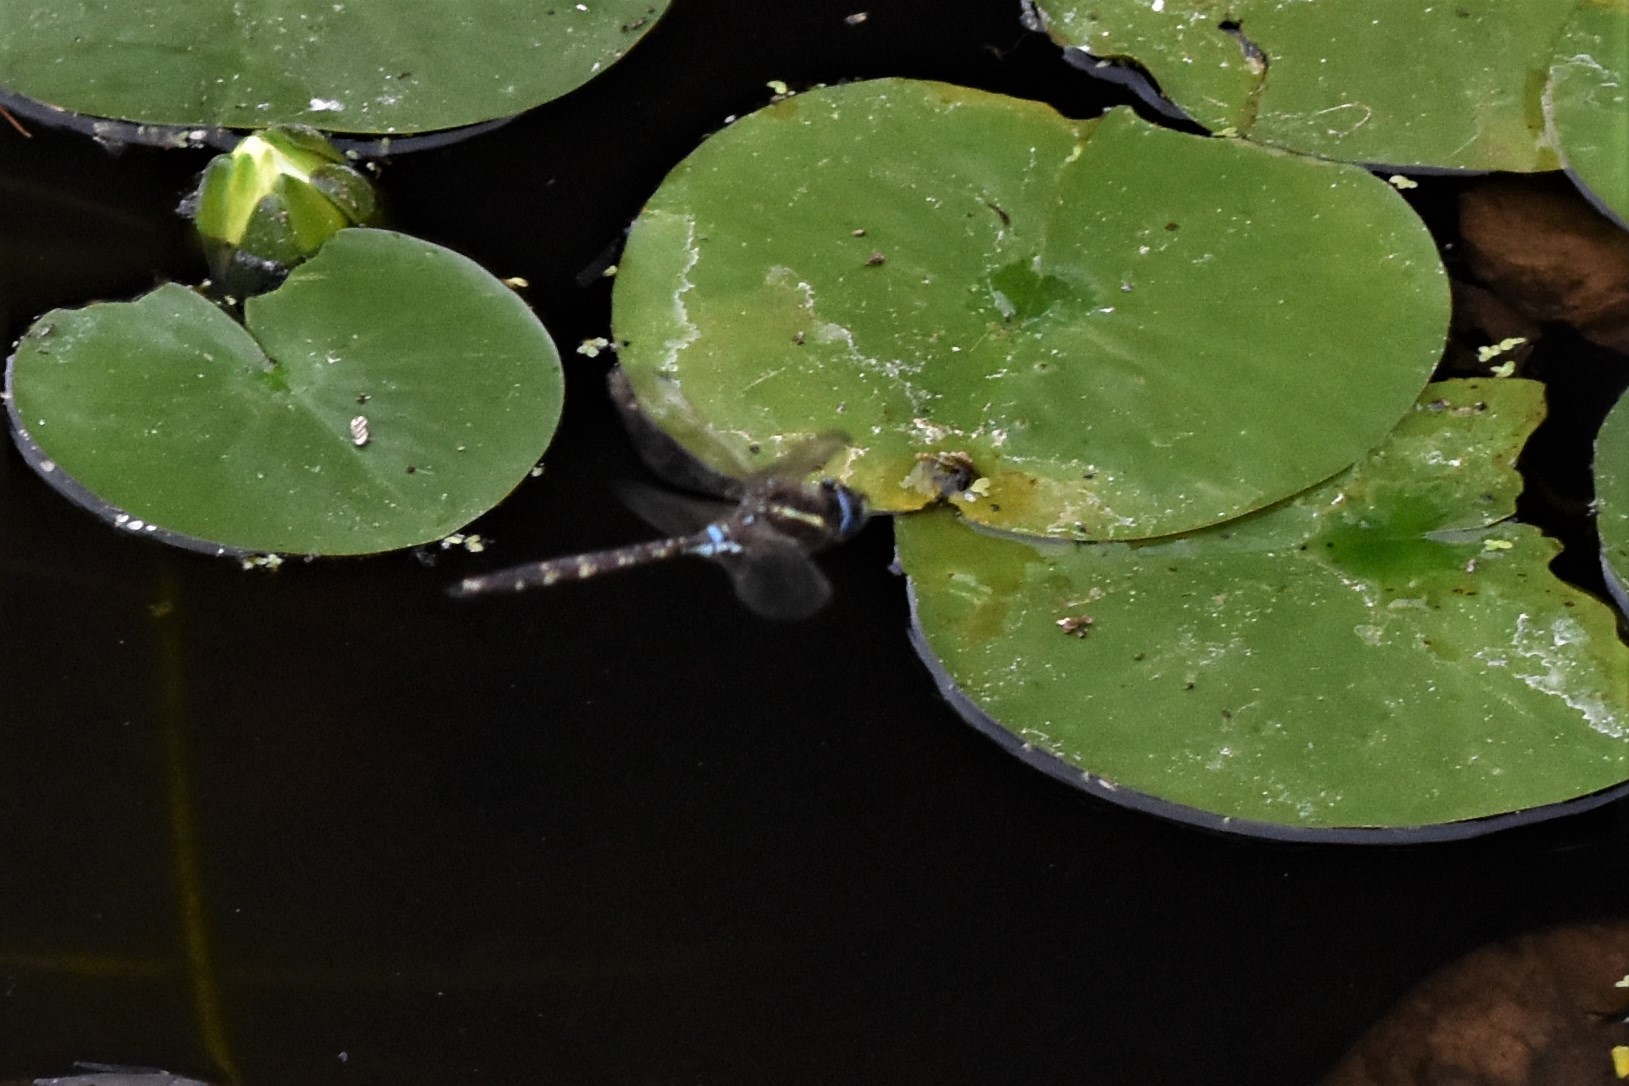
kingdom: Animalia
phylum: Arthropoda
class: Insecta
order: Odonata
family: Aeshnidae
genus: Aeshna
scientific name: Aeshna brevistyla
